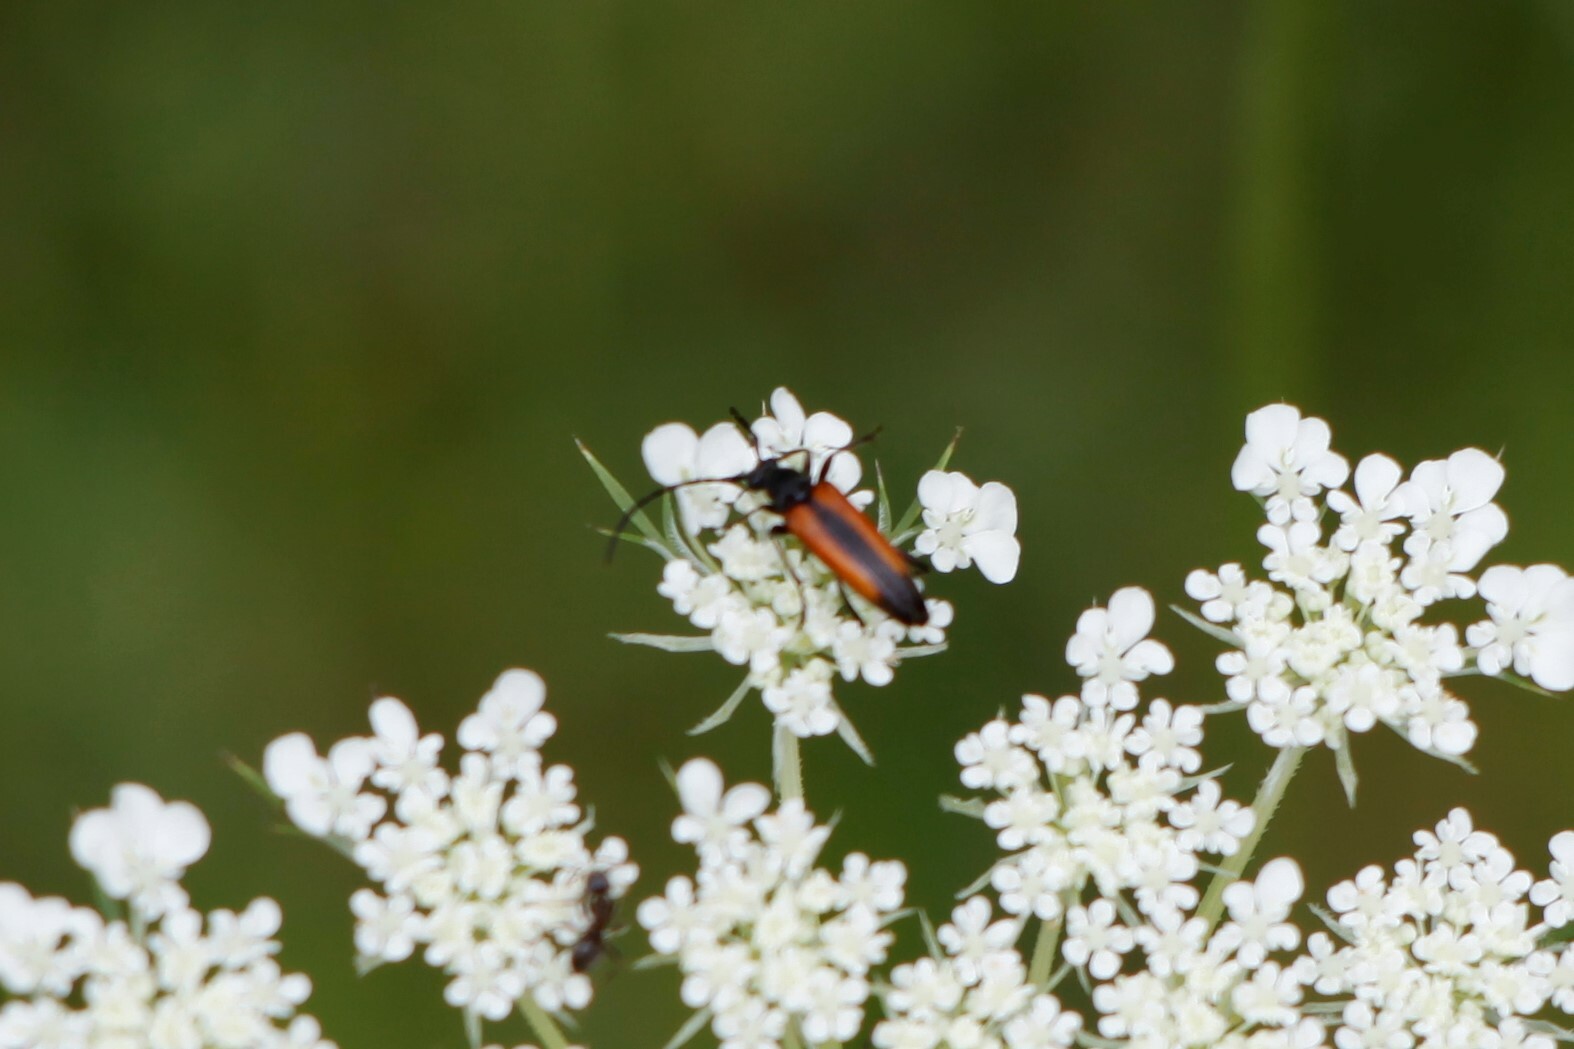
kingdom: Animalia
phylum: Arthropoda
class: Insecta
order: Coleoptera
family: Cerambycidae
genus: Stenurella
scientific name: Stenurella melanura
